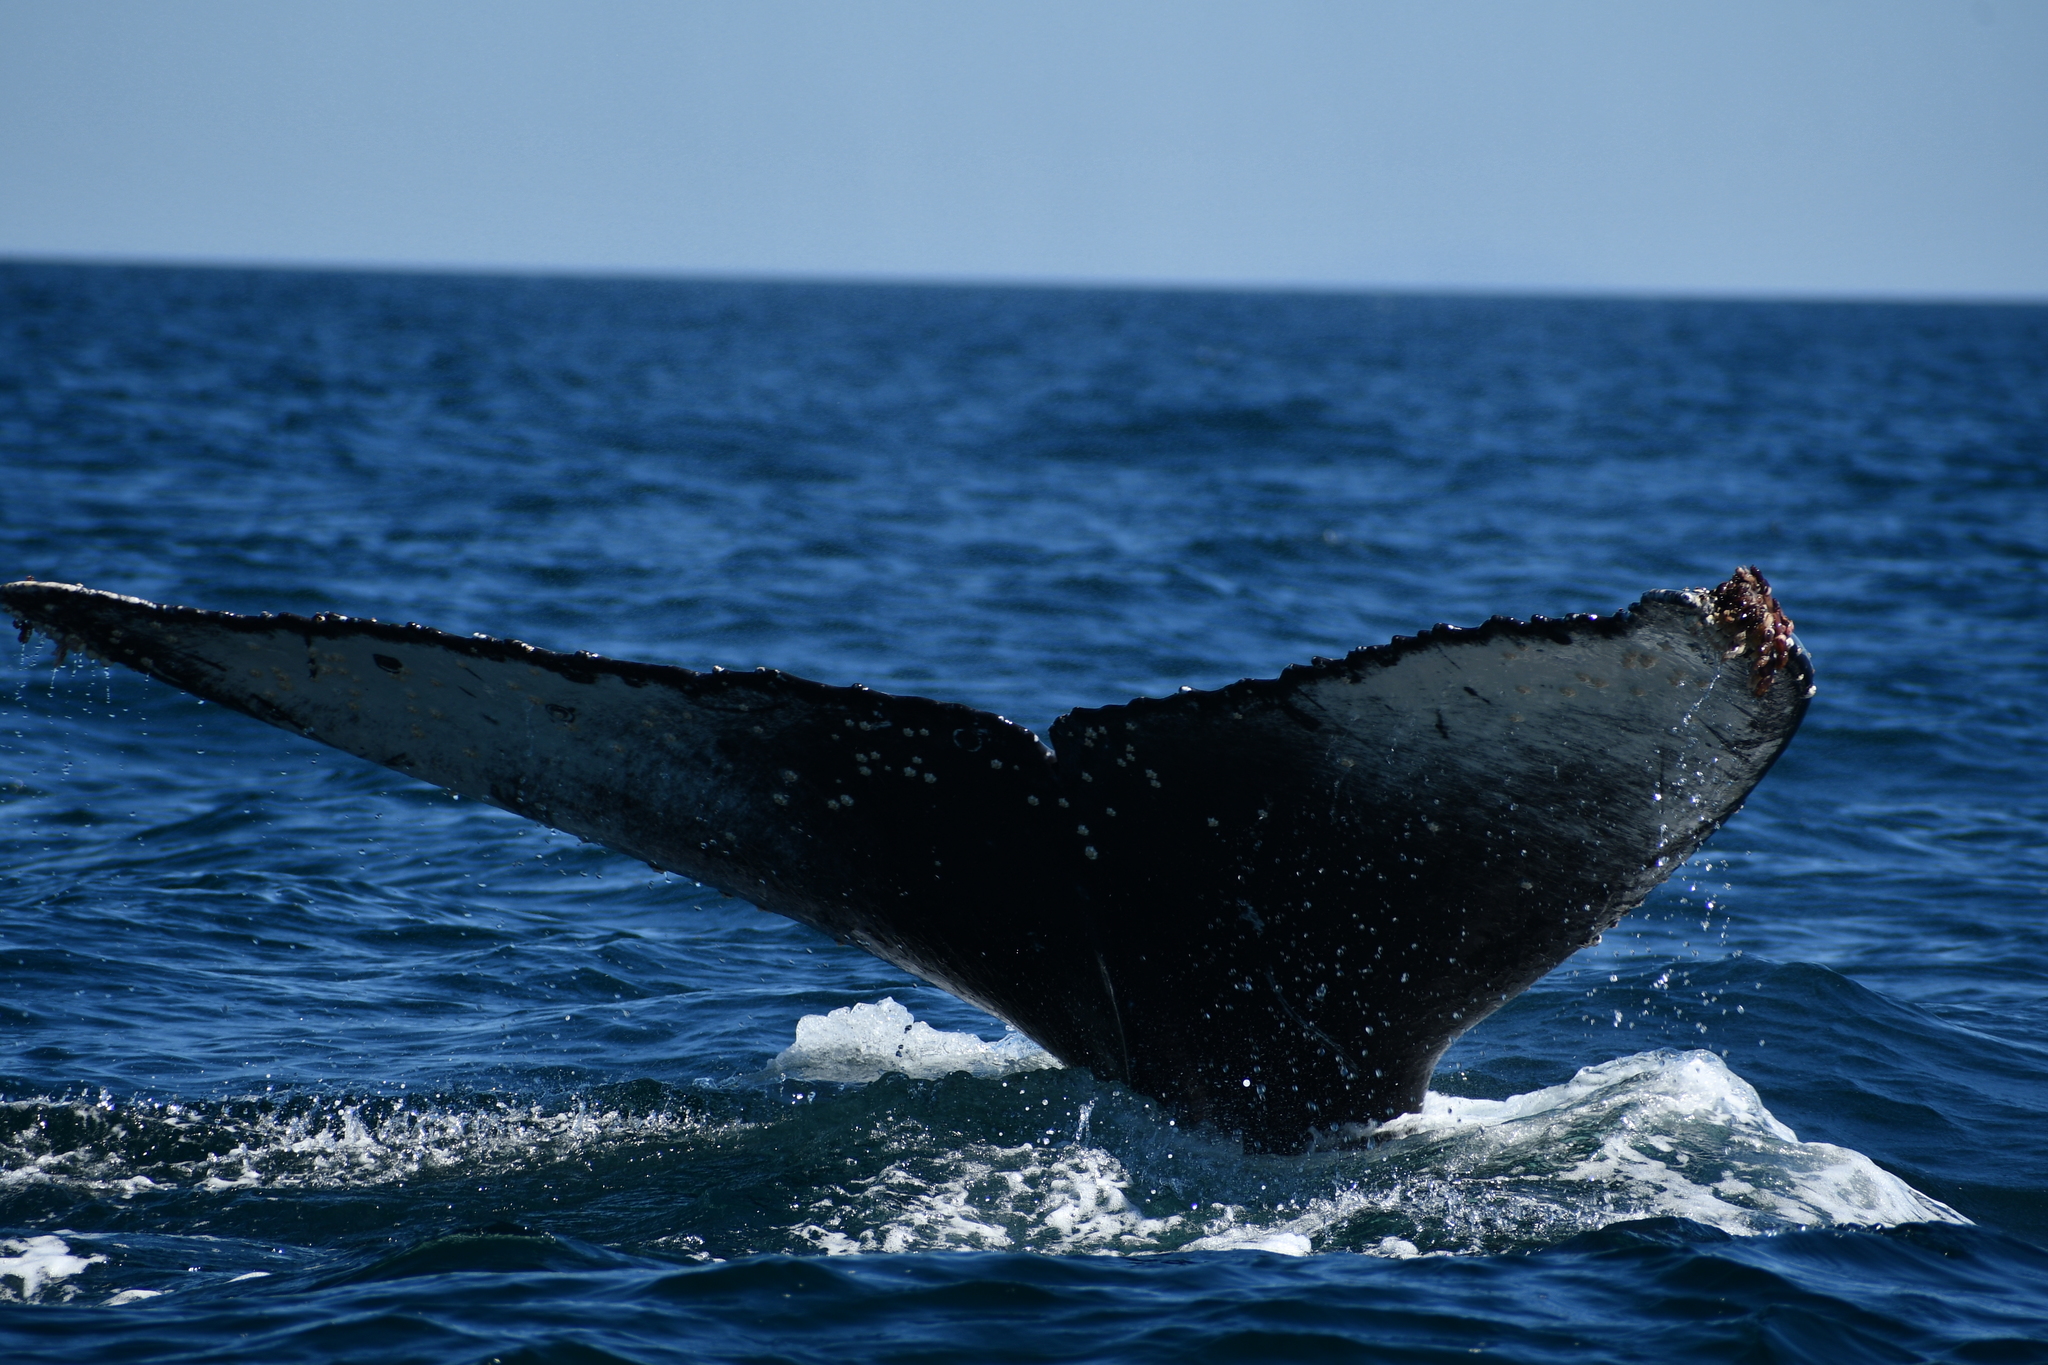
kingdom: Animalia
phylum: Chordata
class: Mammalia
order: Cetacea
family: Balaenopteridae
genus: Megaptera
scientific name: Megaptera novaeangliae
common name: Humpback whale
